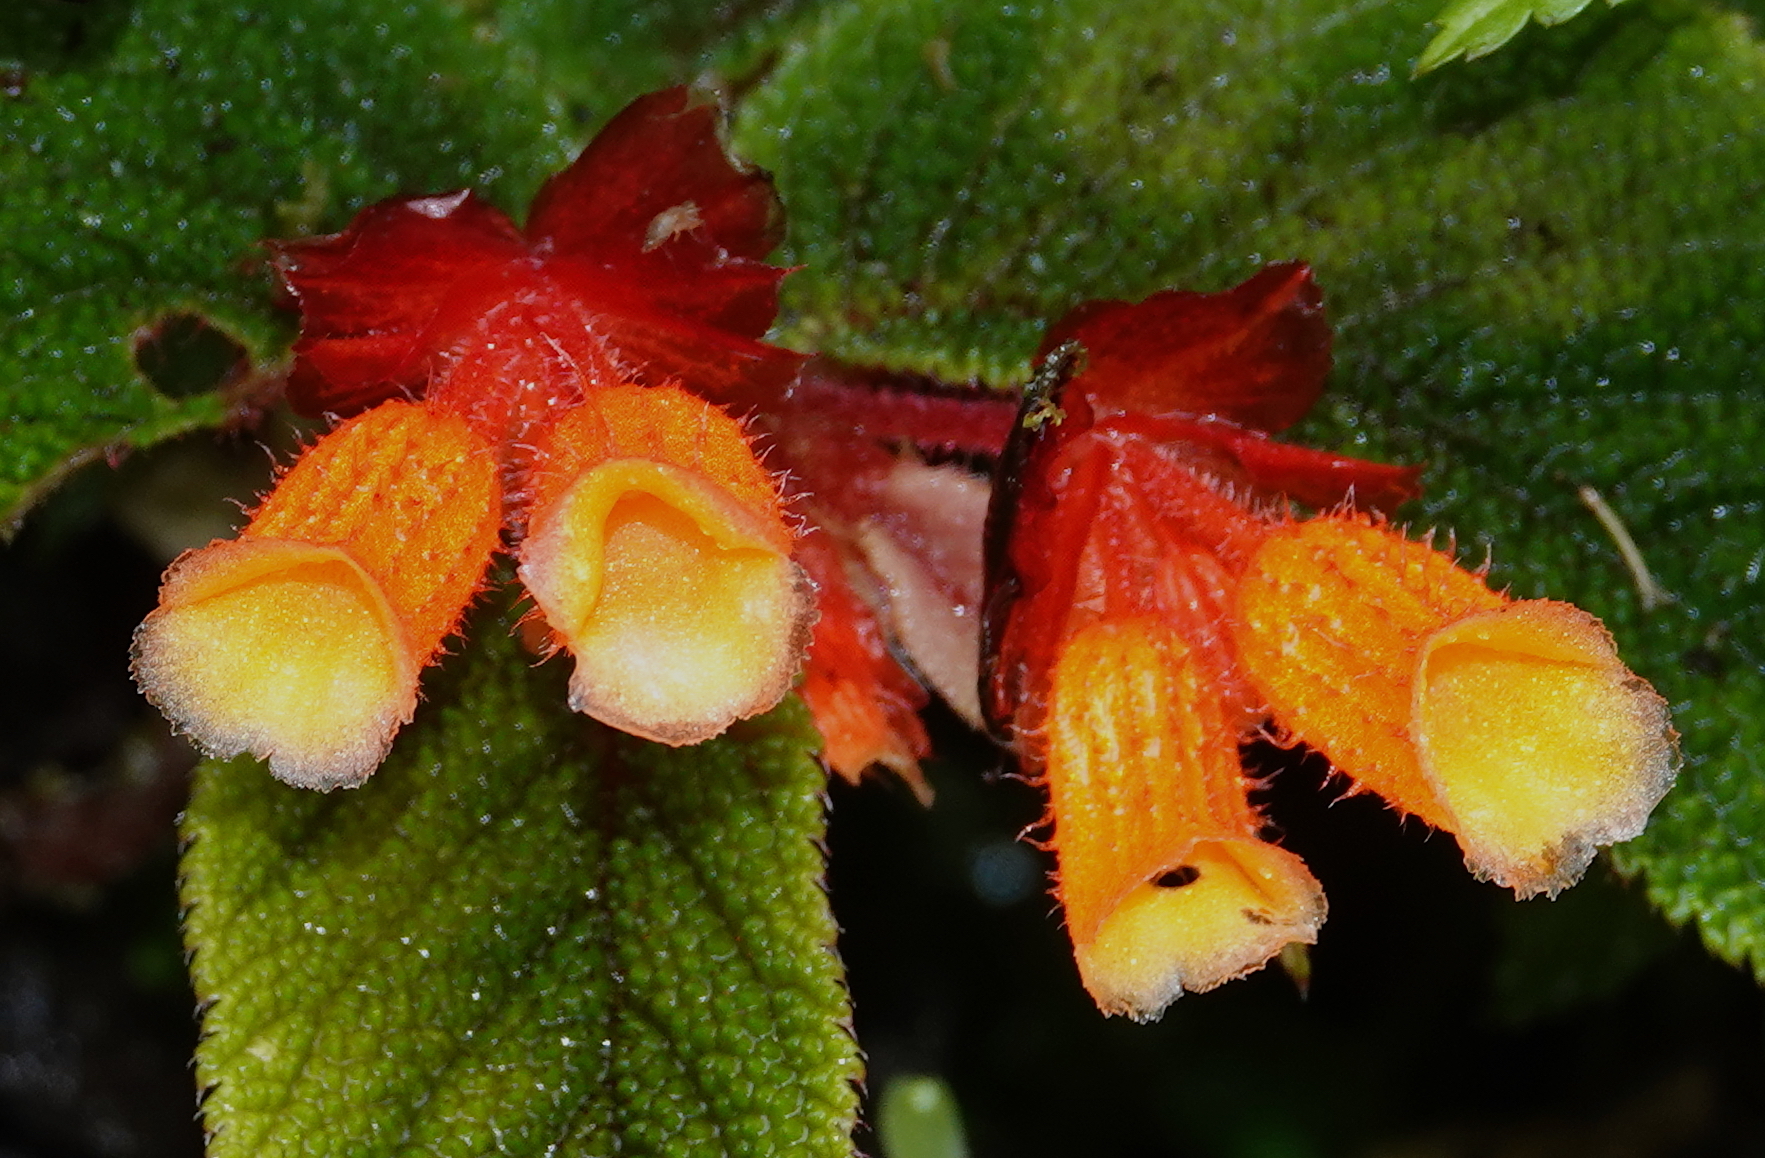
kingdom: Plantae
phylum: Tracheophyta
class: Magnoliopsida
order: Cucurbitales
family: Begoniaceae
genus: Begonia
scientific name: Begonia lehmannii
